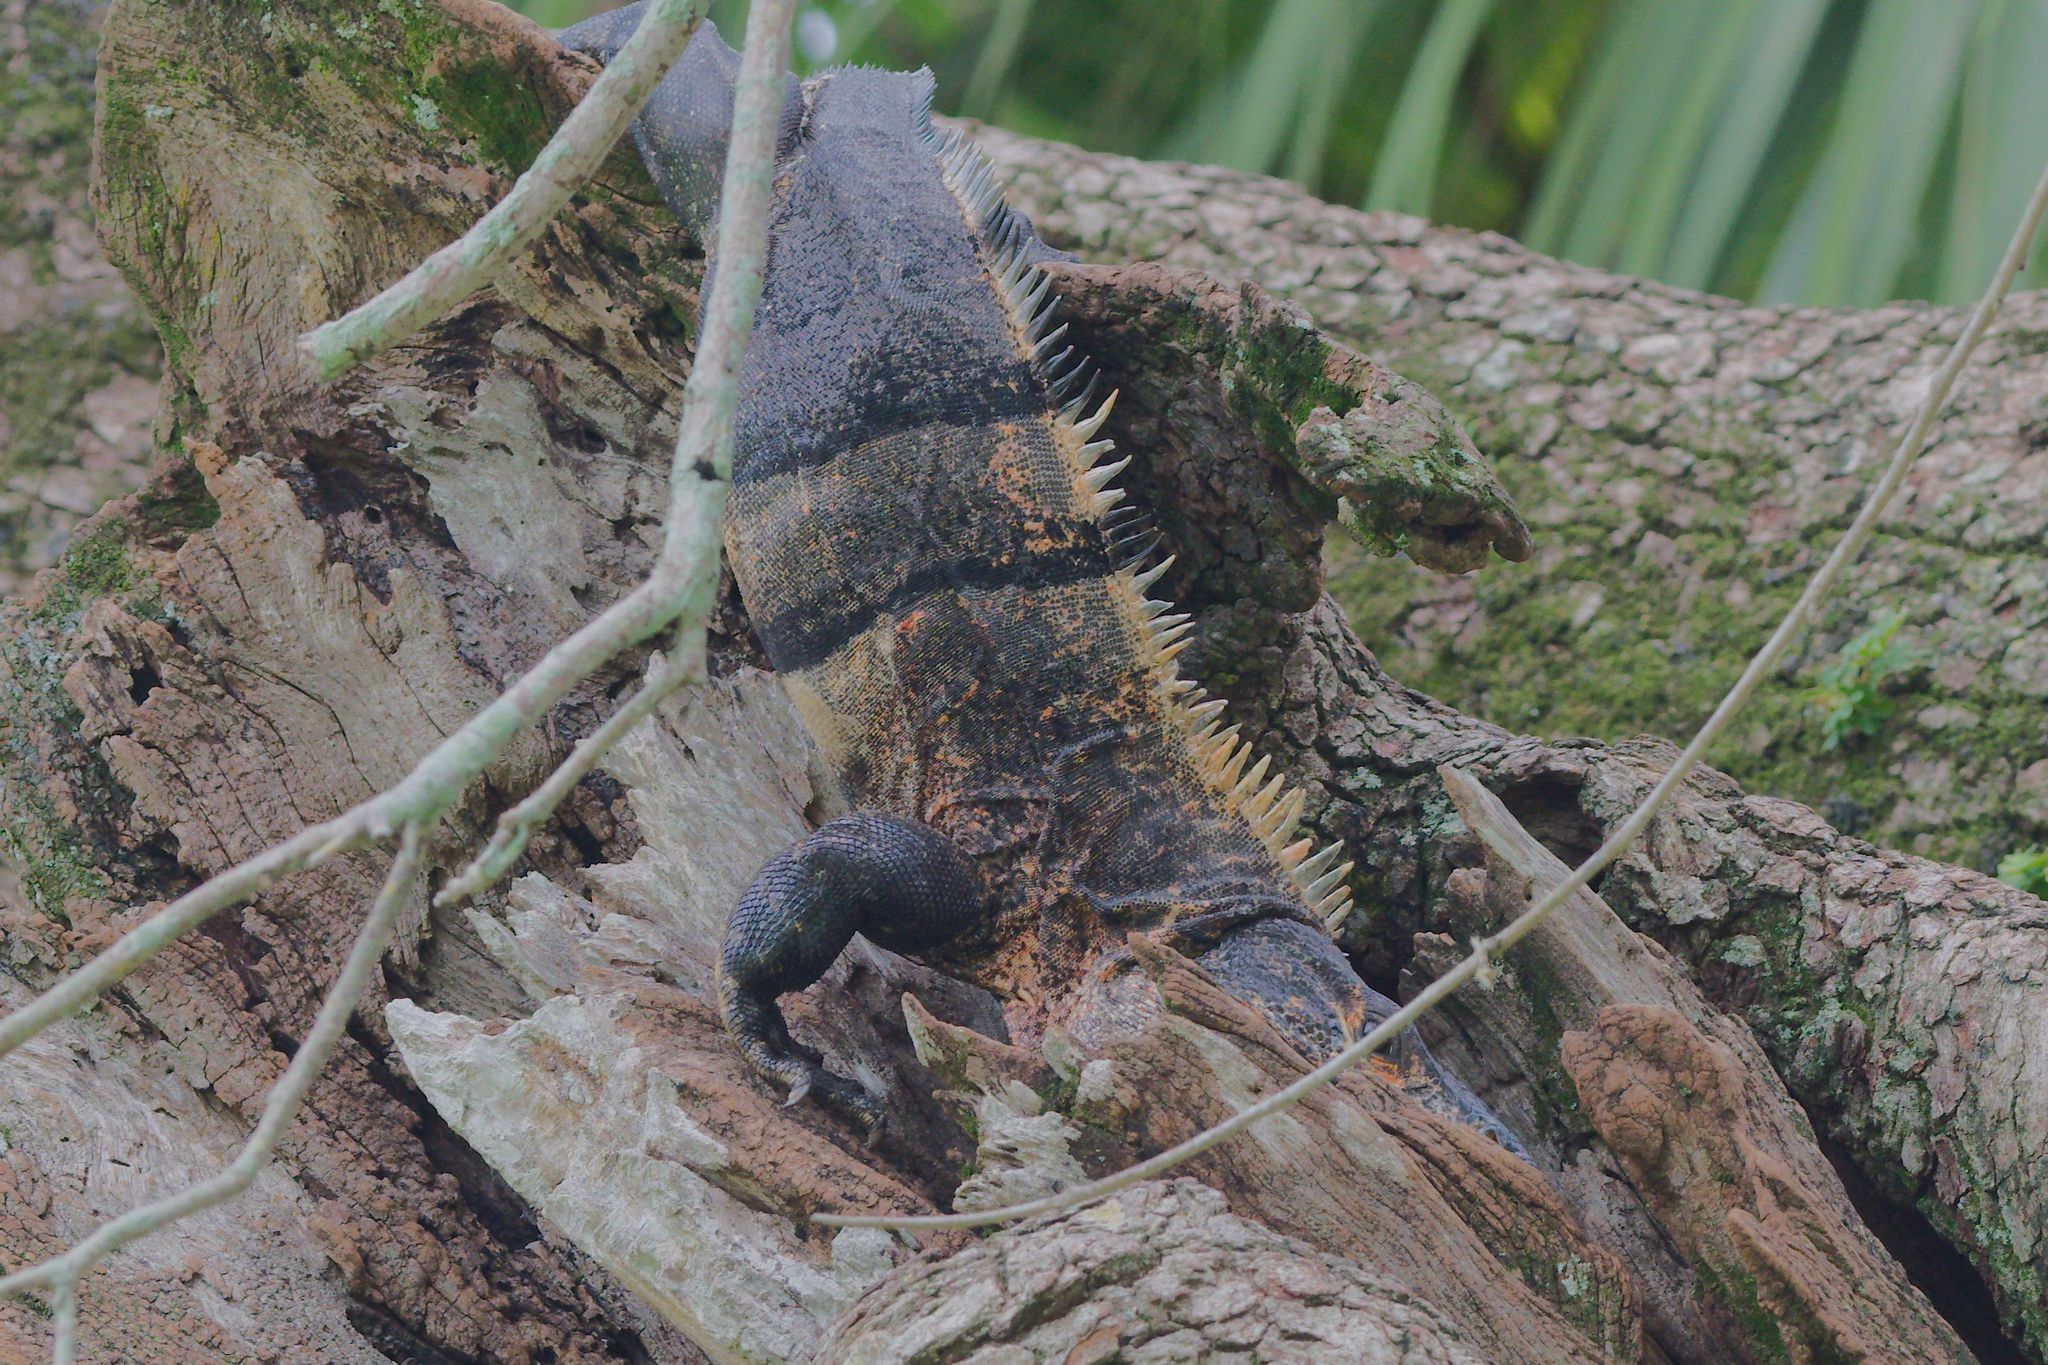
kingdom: Animalia
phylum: Chordata
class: Squamata
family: Iguanidae
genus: Ctenosaura
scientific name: Ctenosaura similis
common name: Black spiny-tailed iguana
